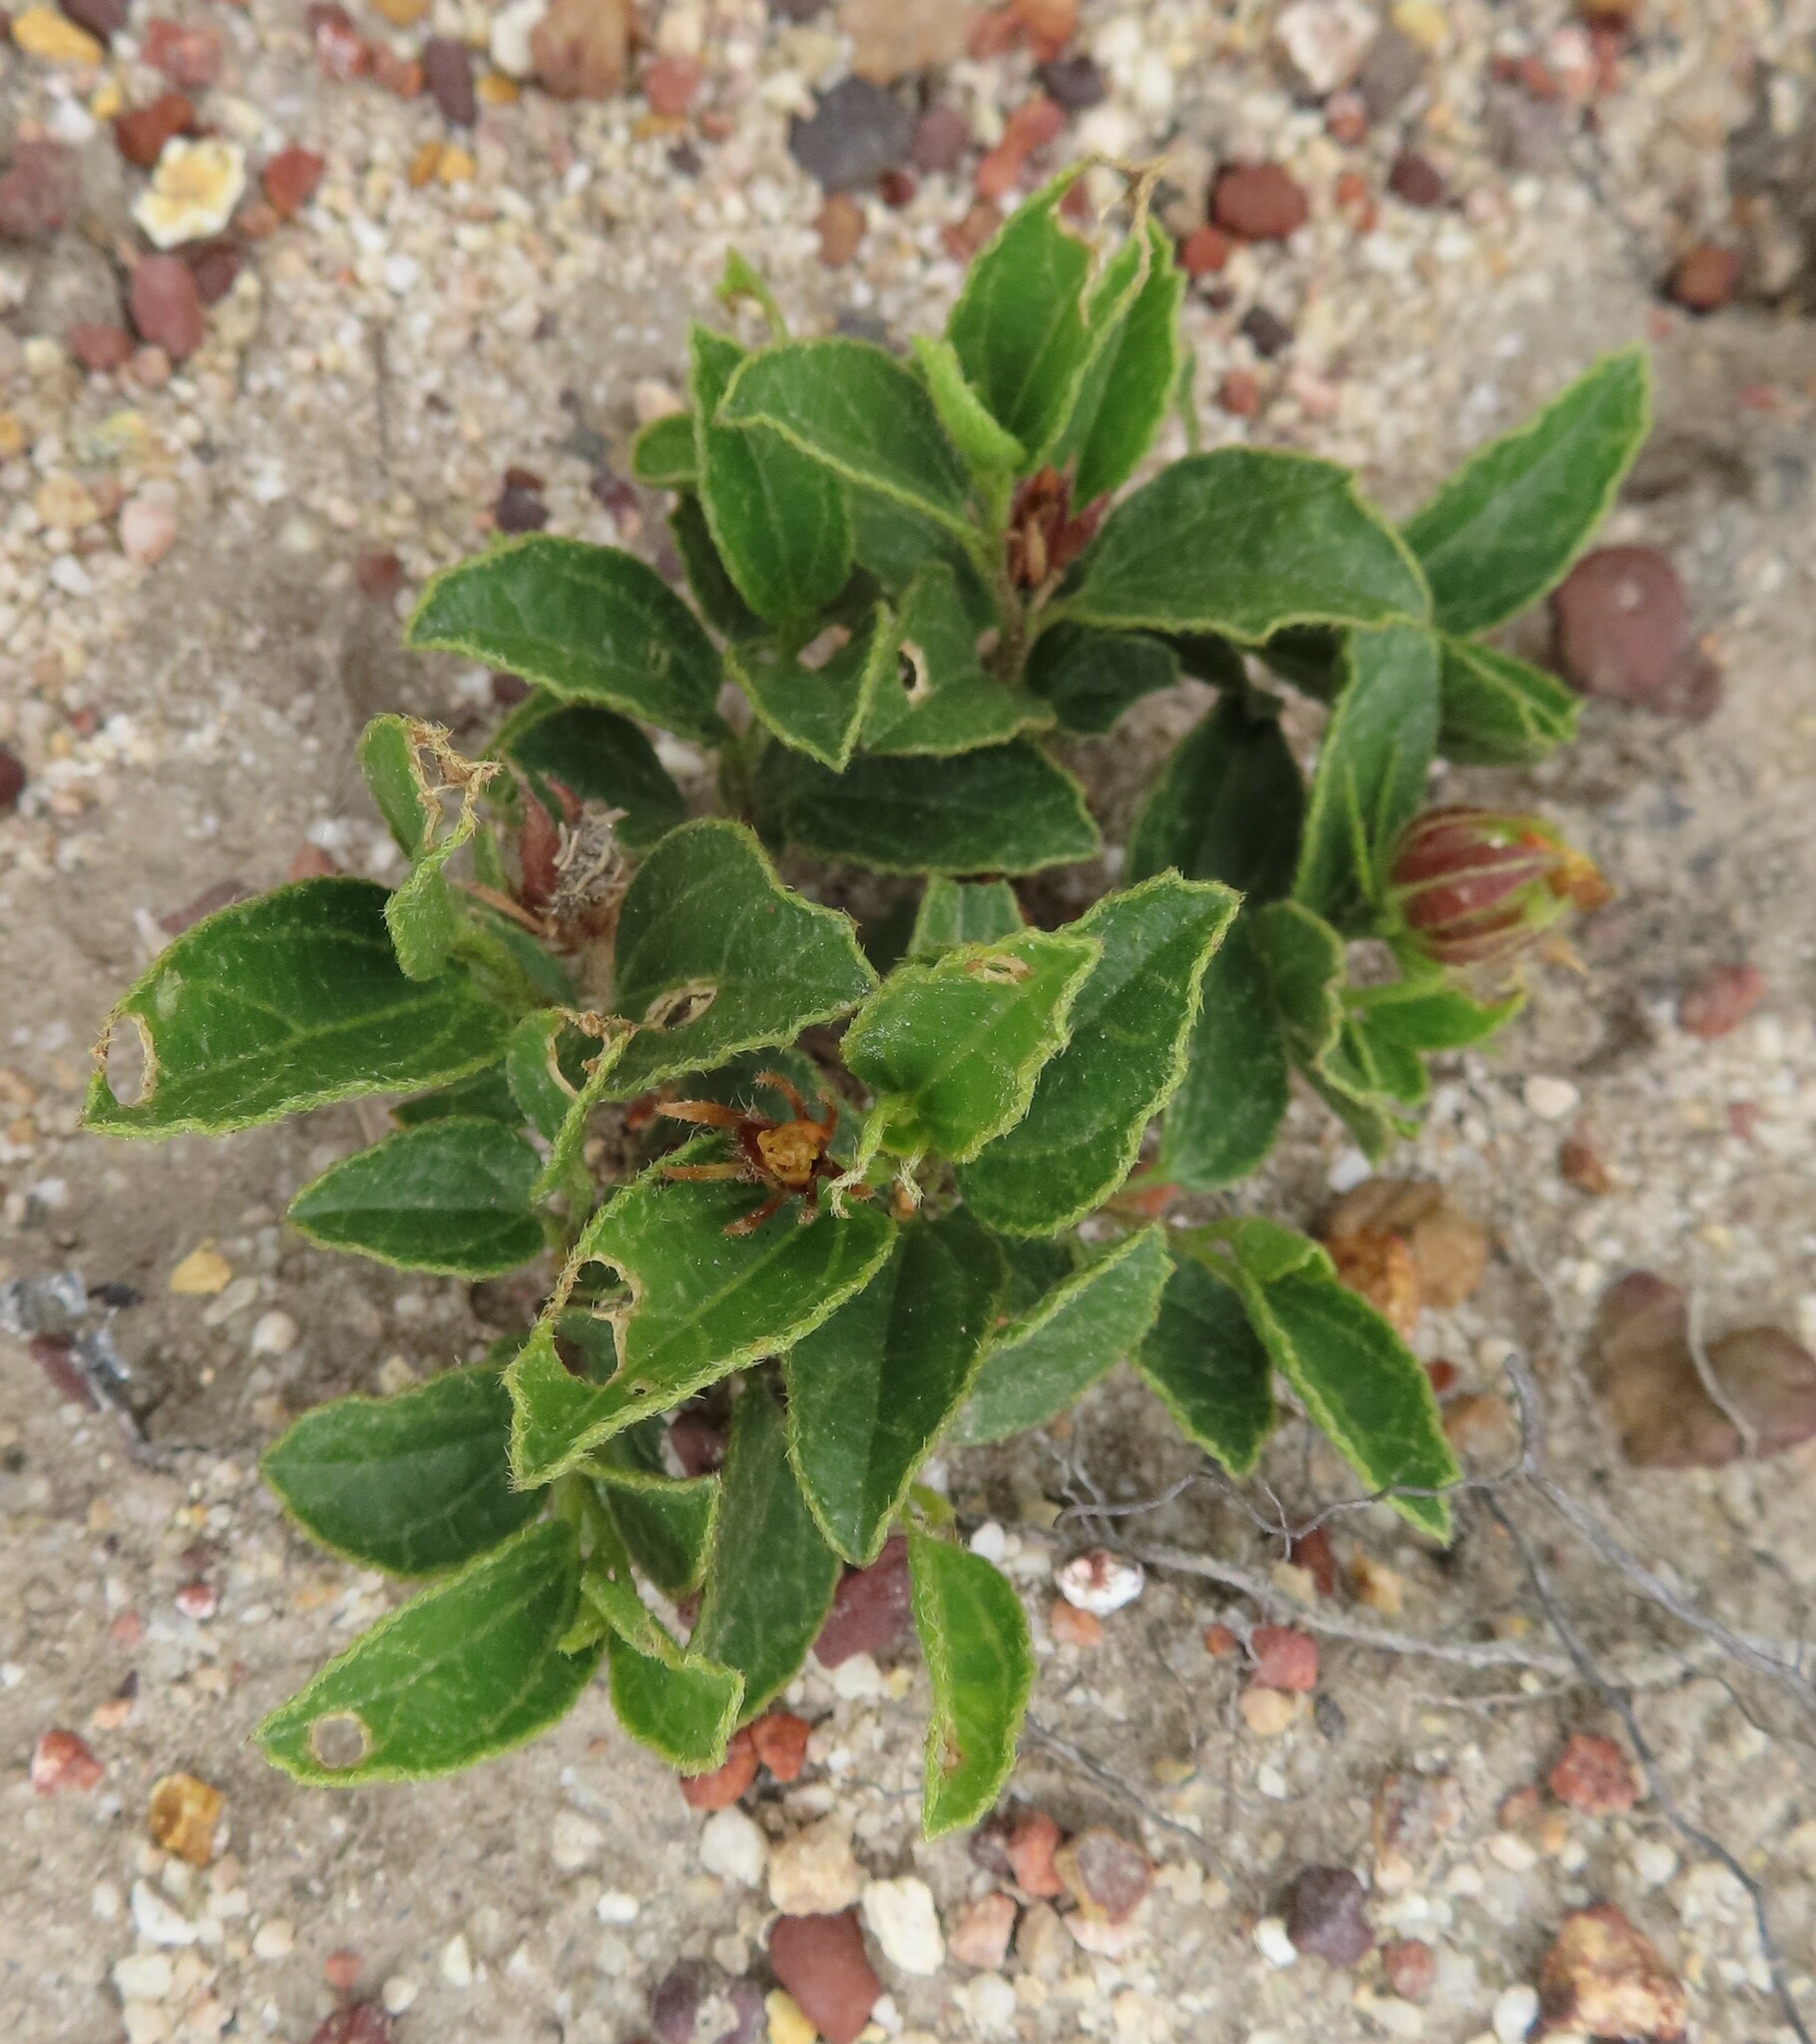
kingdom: Plantae
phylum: Tracheophyta
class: Magnoliopsida
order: Malvales
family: Malvaceae
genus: Hibiscus
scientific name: Hibiscus aethiopicus
